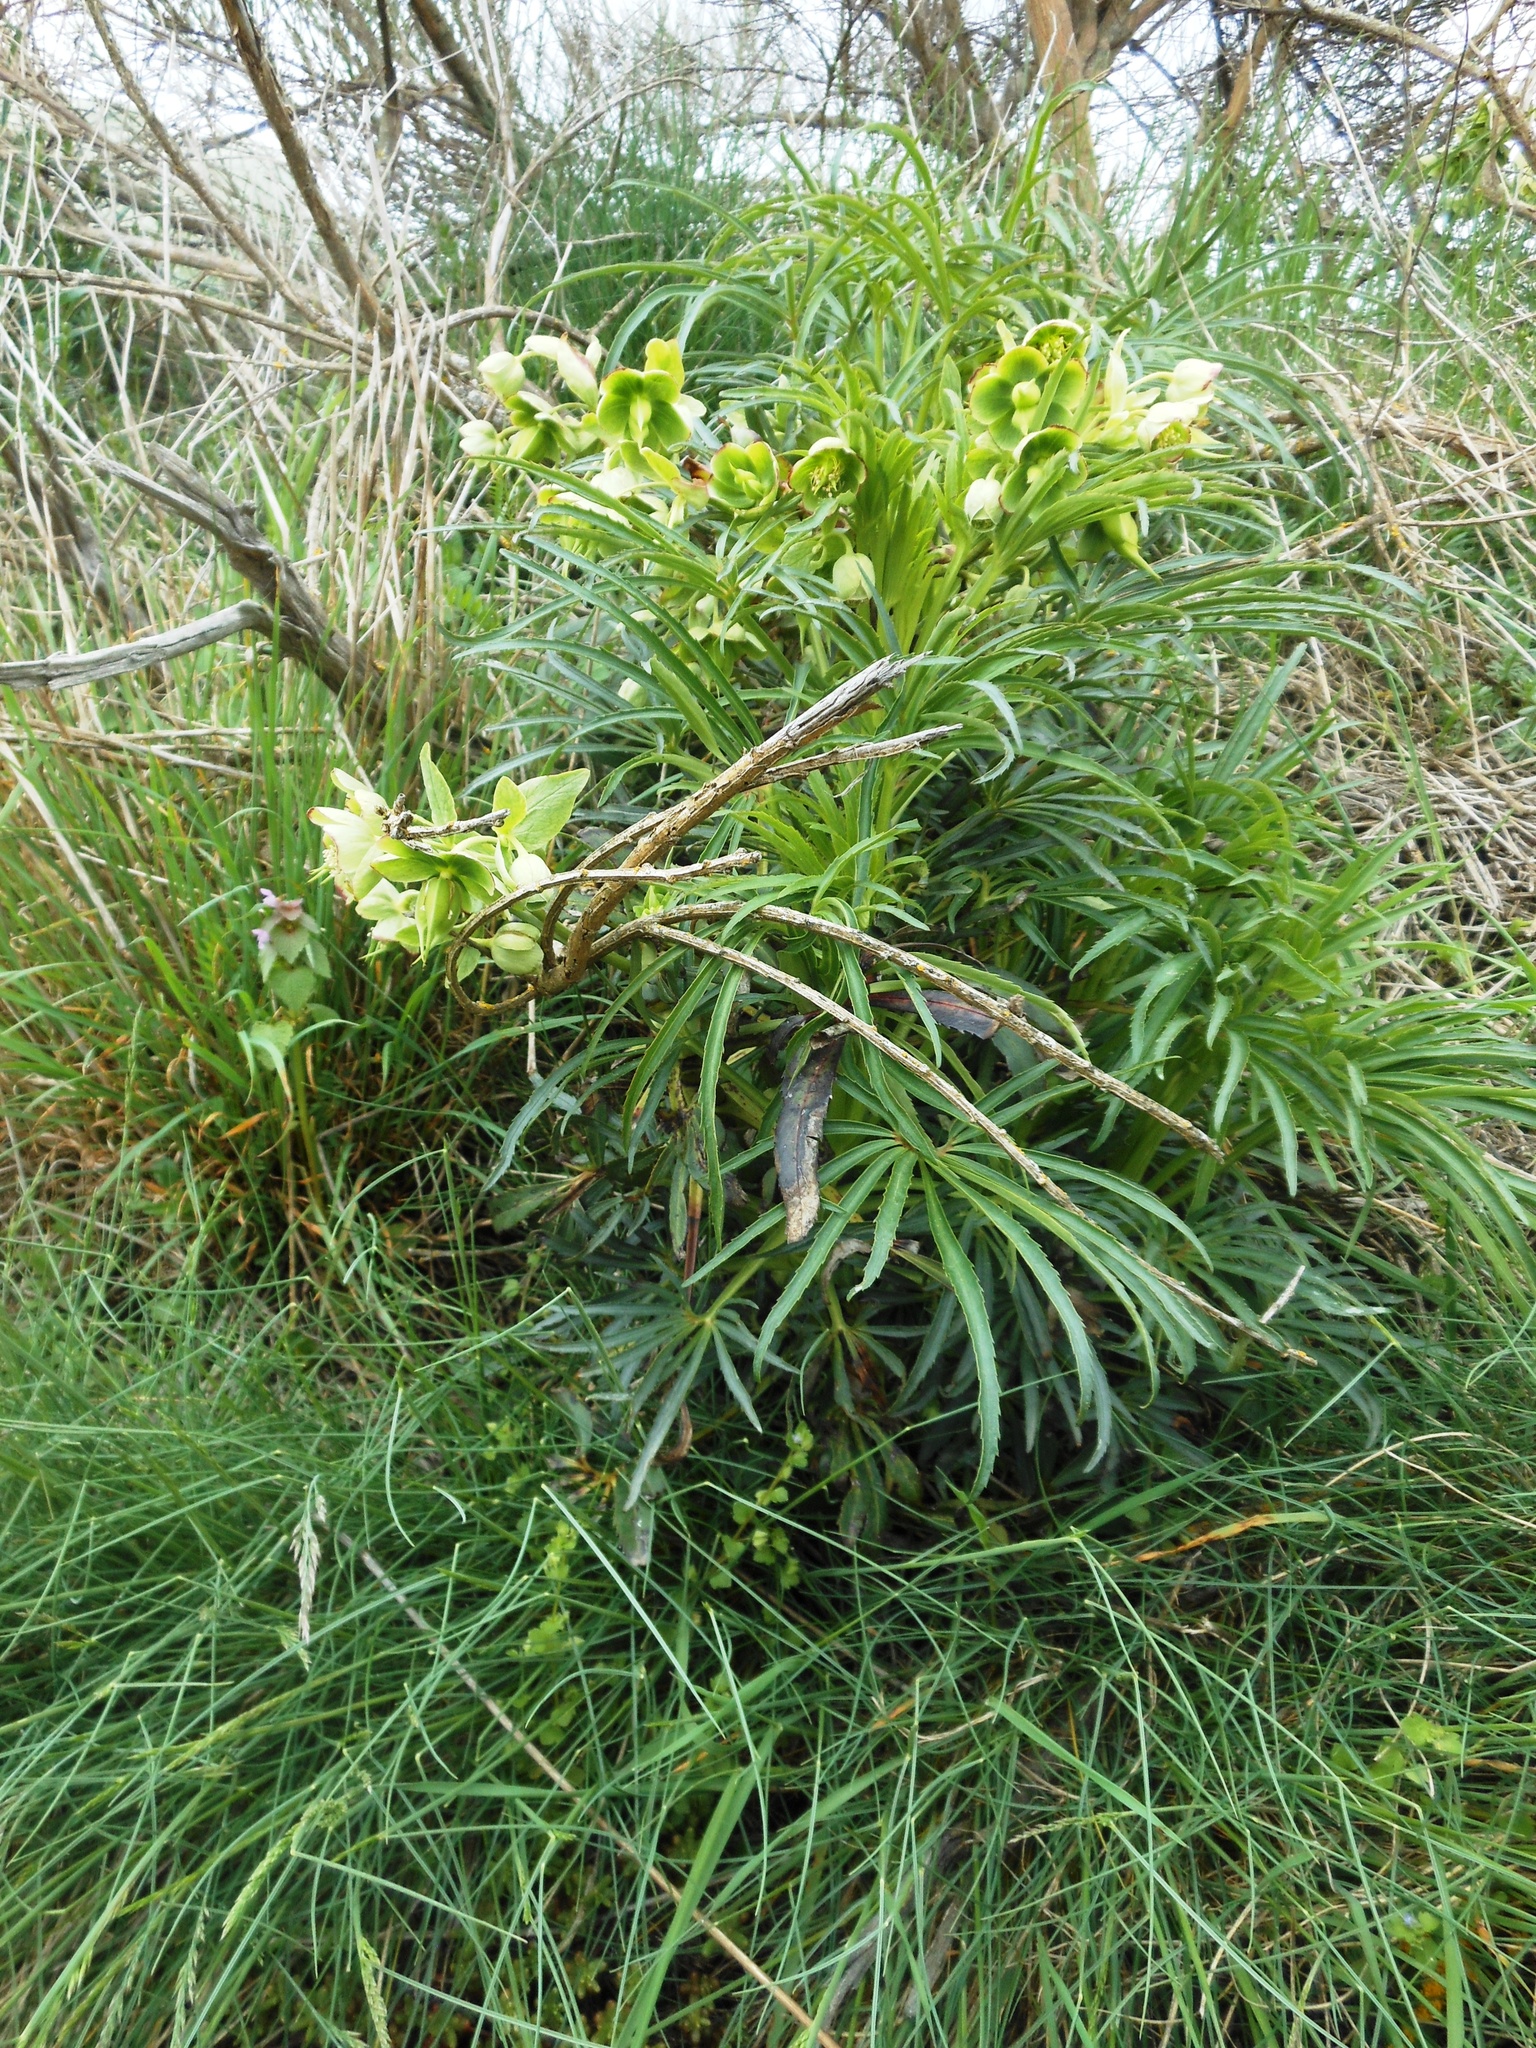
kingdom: Plantae
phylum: Tracheophyta
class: Magnoliopsida
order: Ranunculales
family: Ranunculaceae
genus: Helleborus
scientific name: Helleborus foetidus
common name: Stinking hellebore
